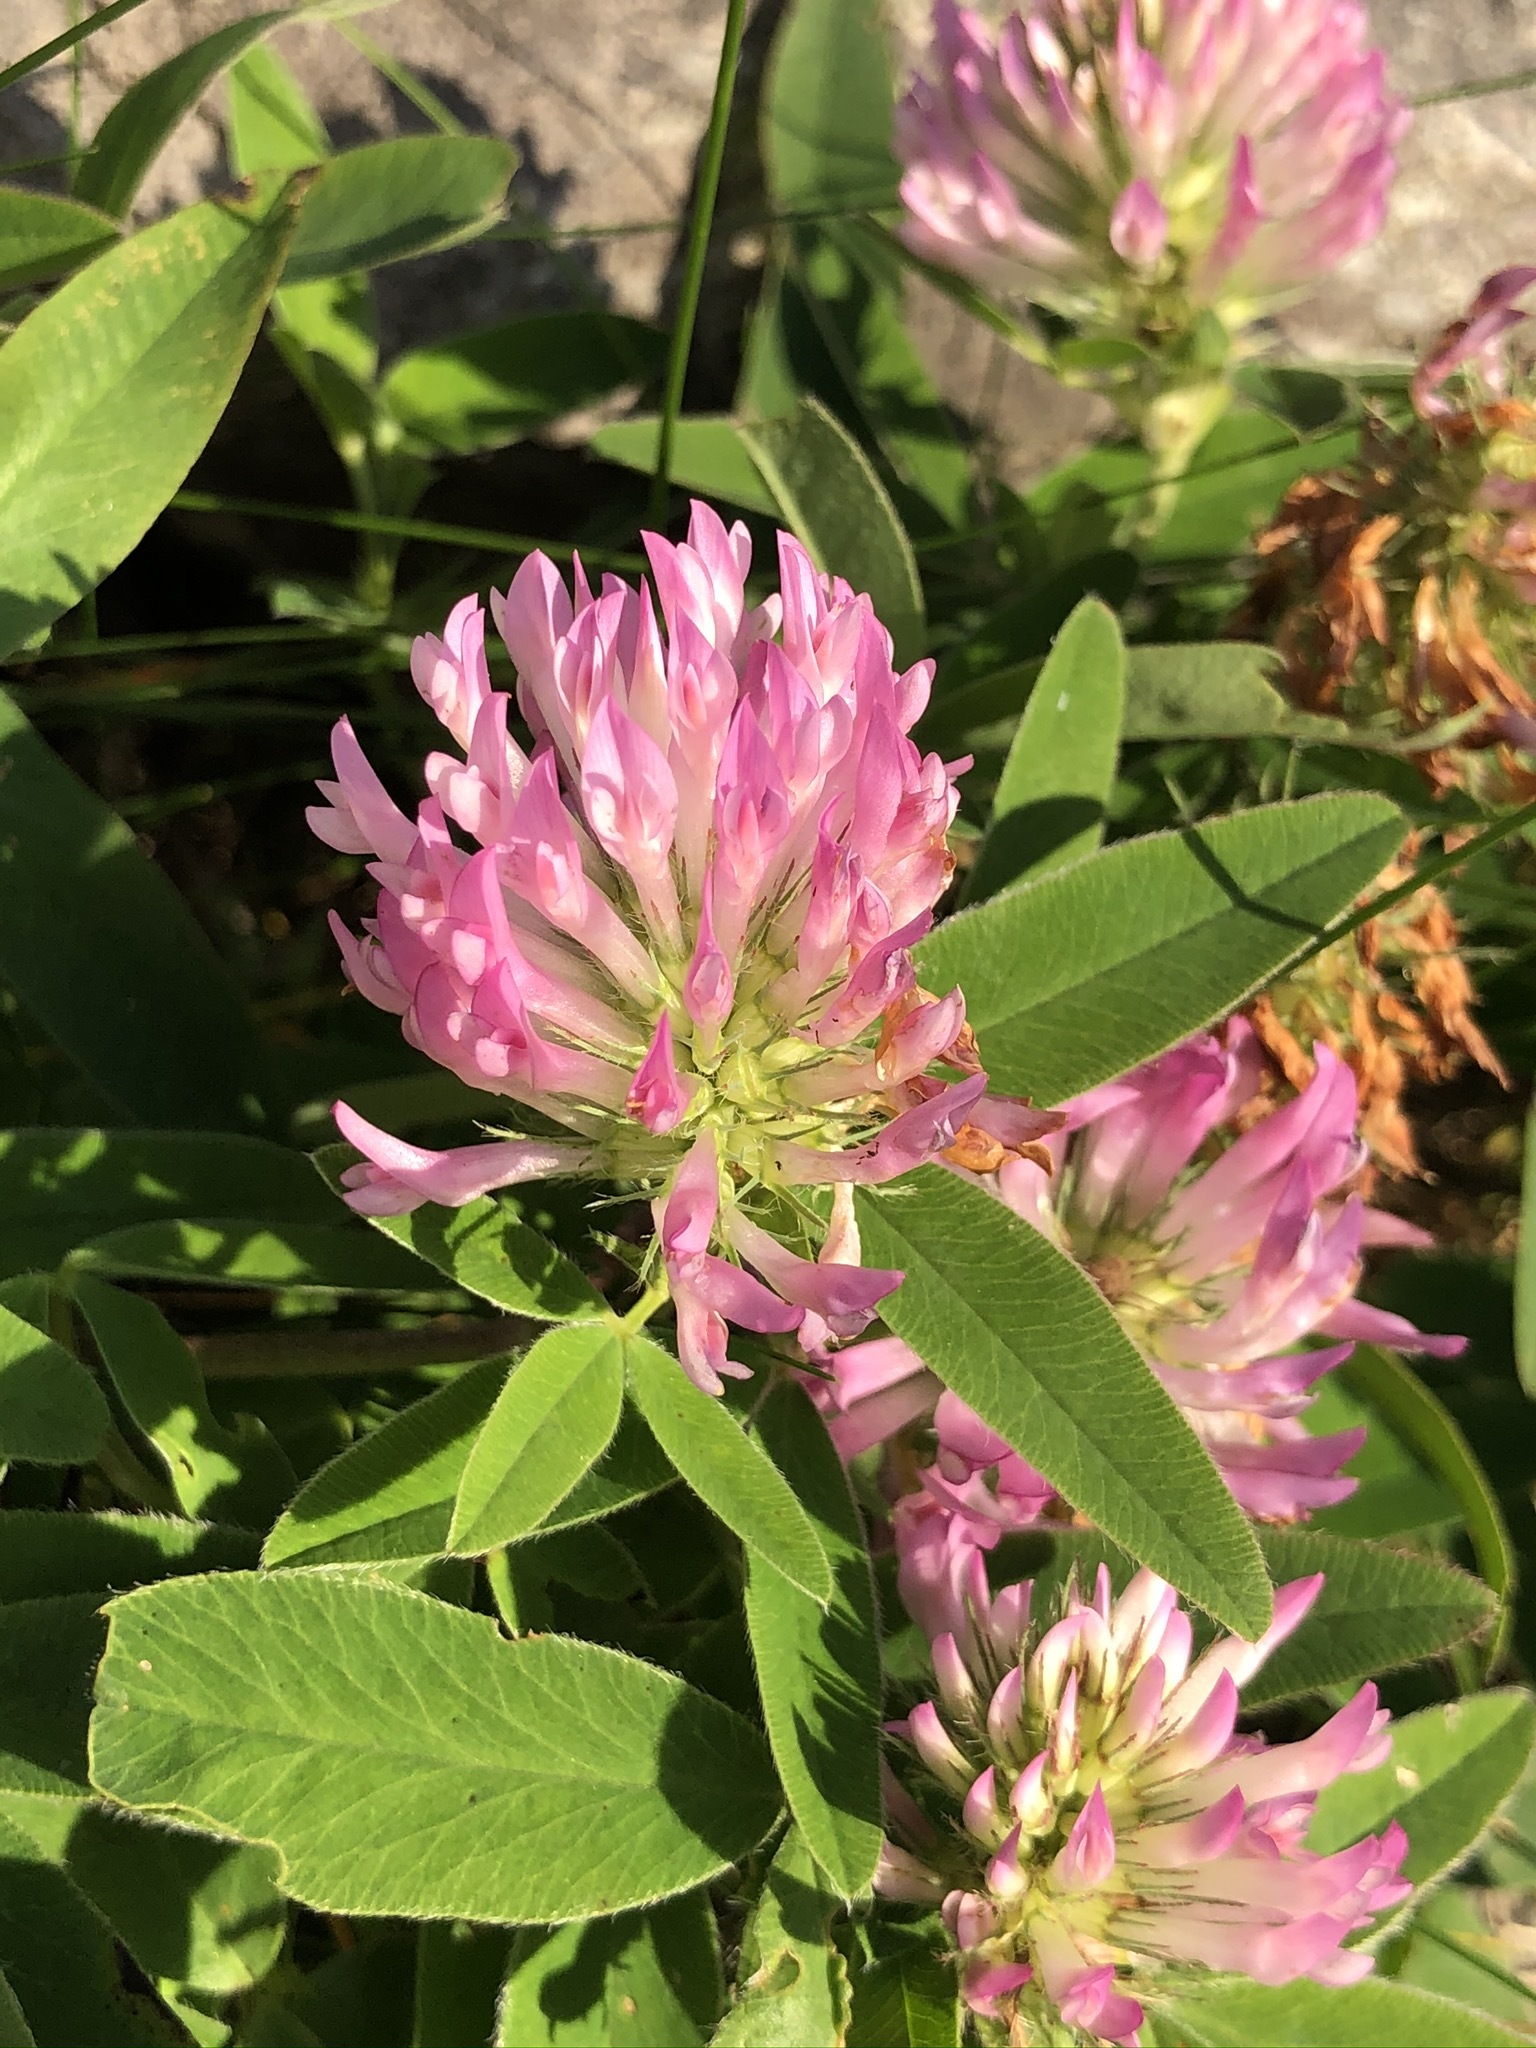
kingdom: Plantae
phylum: Tracheophyta
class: Magnoliopsida
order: Fabales
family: Fabaceae
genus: Trifolium
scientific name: Trifolium medium
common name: Zigzag clover
